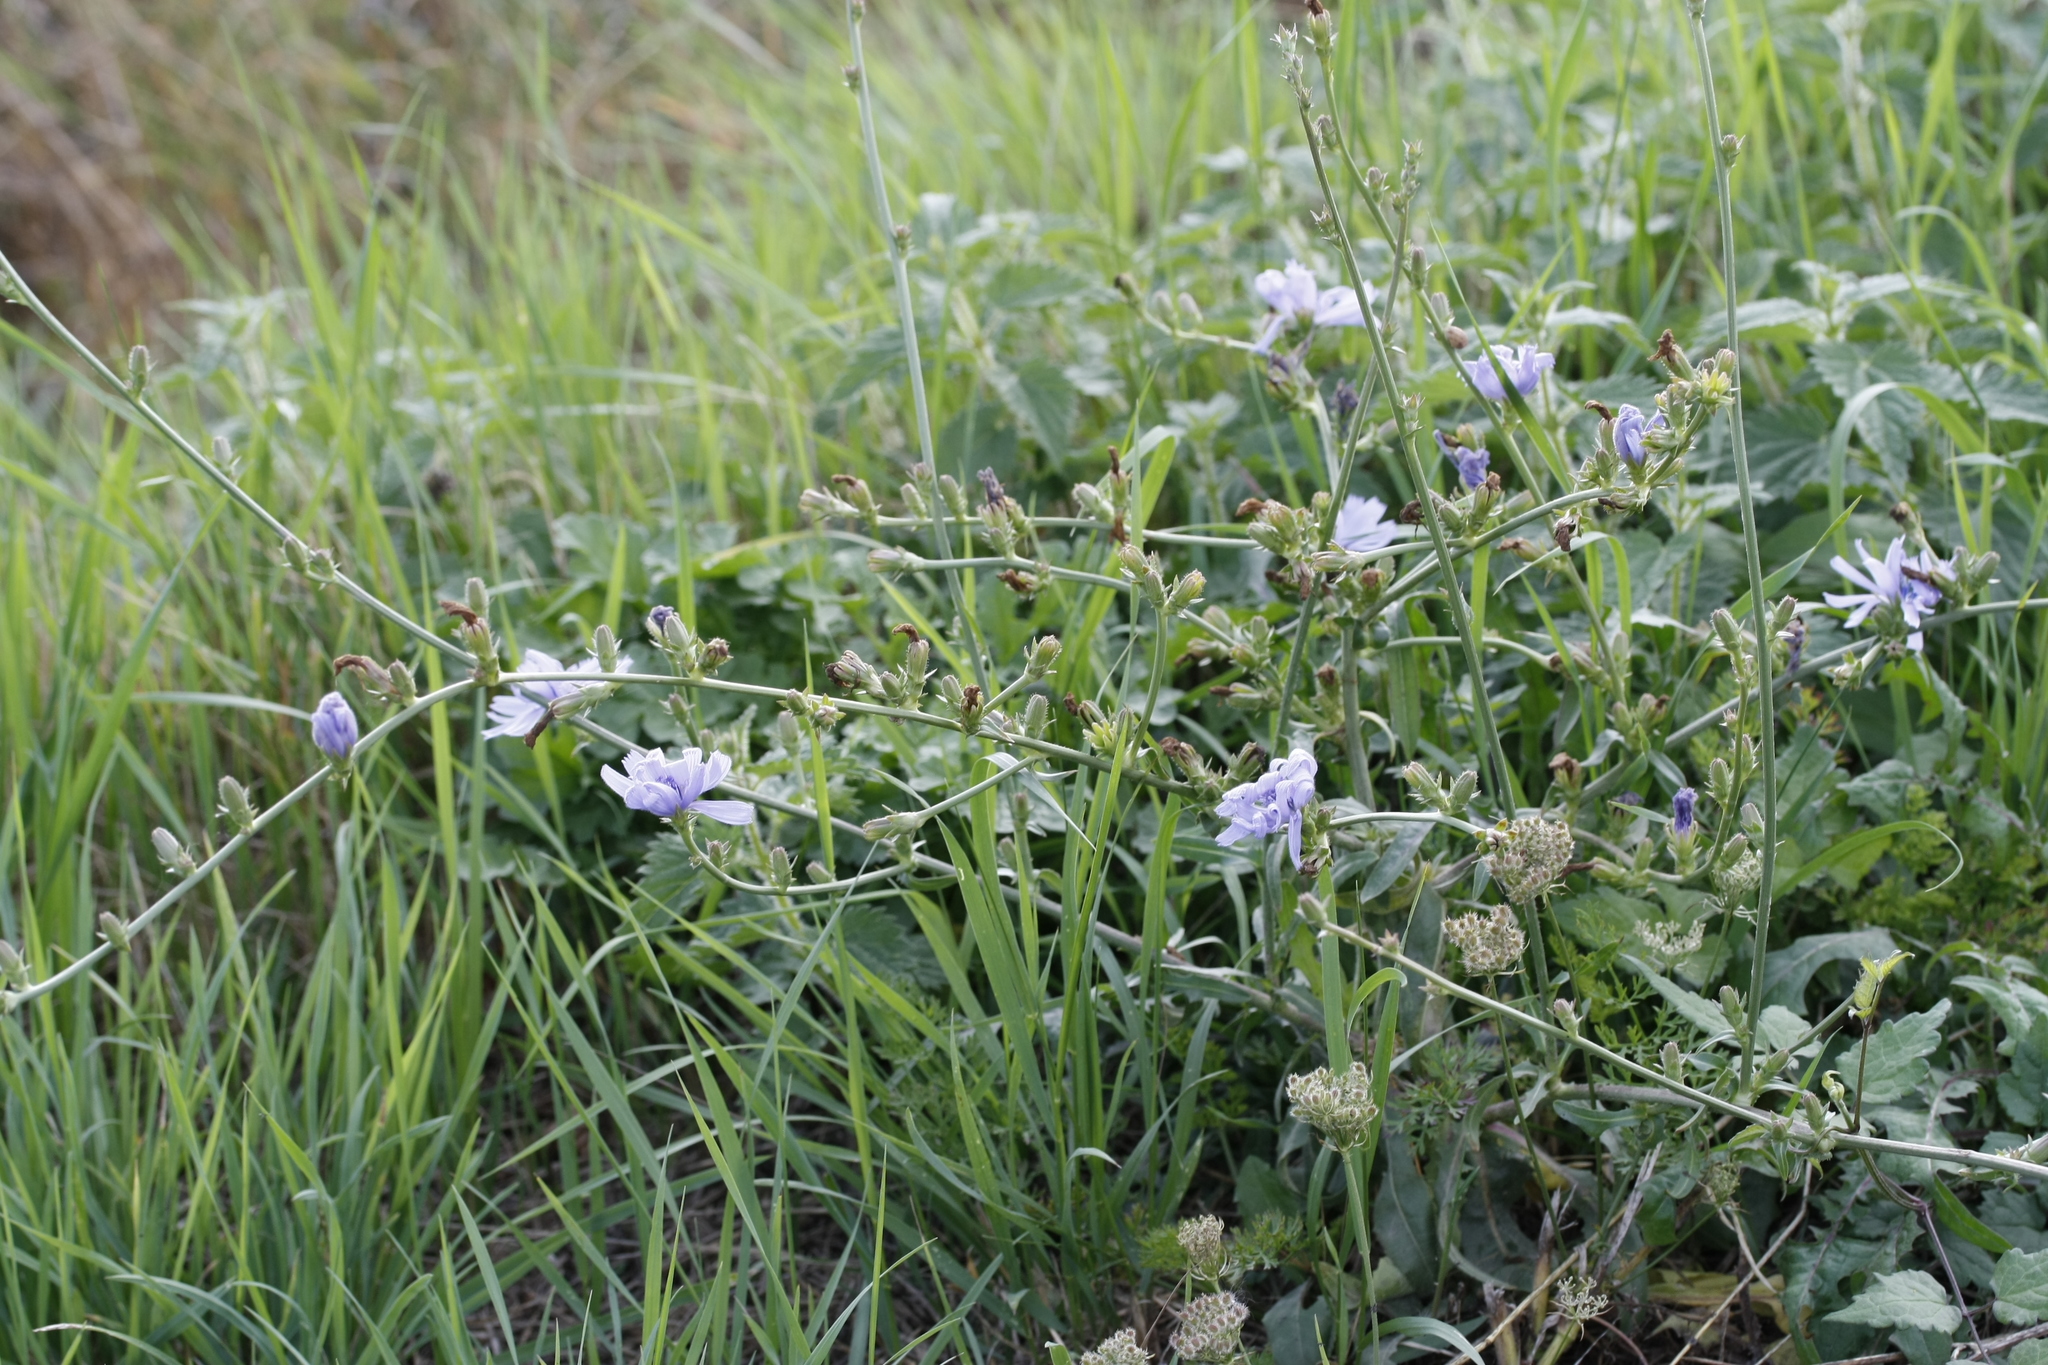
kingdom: Plantae
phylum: Tracheophyta
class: Magnoliopsida
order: Asterales
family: Asteraceae
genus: Cichorium
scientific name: Cichorium intybus
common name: Chicory
